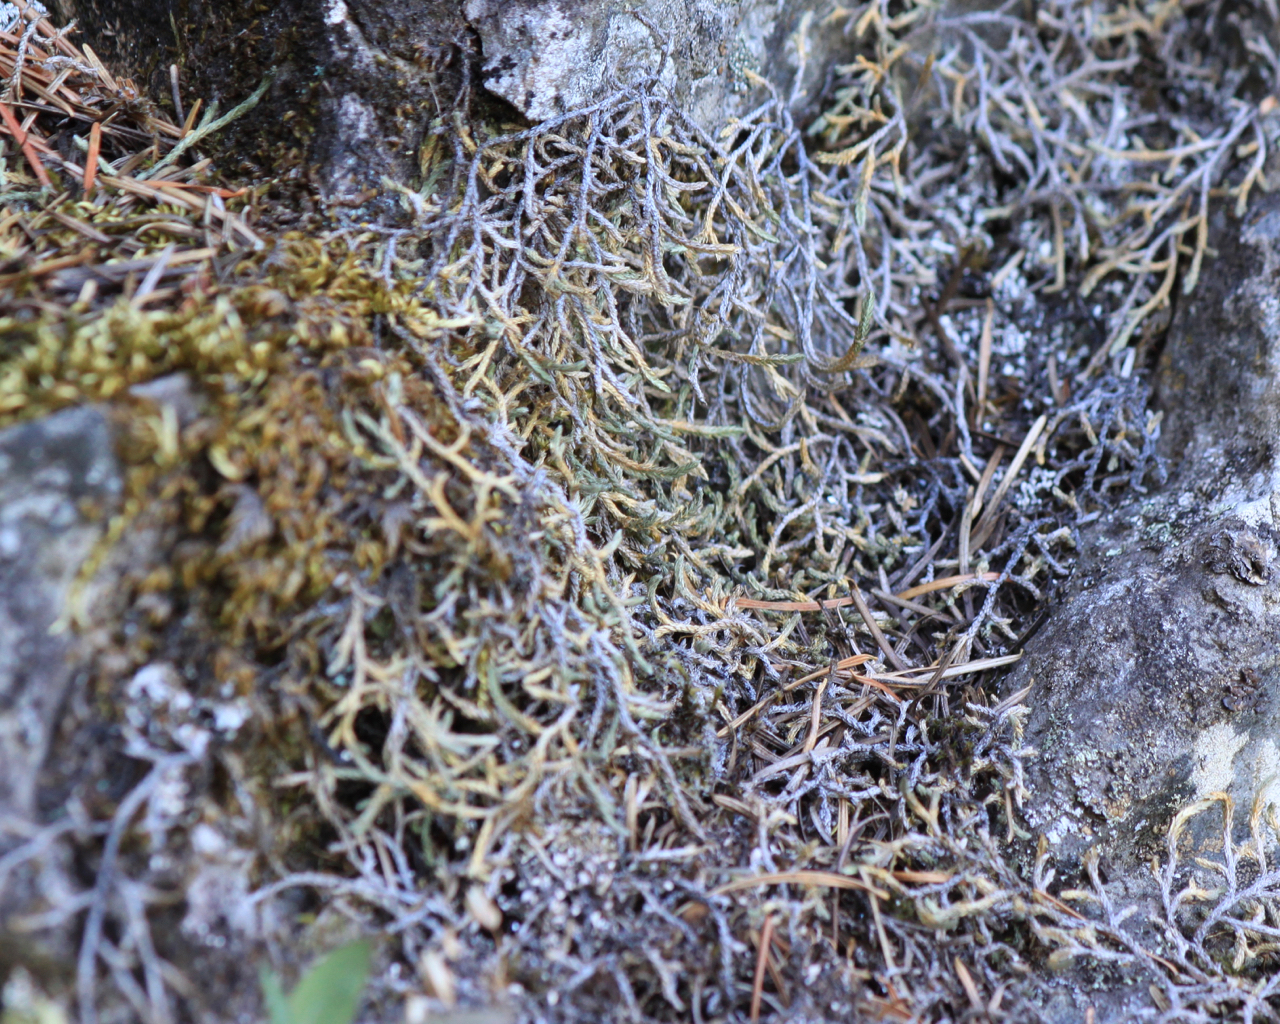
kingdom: Plantae
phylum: Tracheophyta
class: Lycopodiopsida
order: Selaginellales
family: Selaginellaceae
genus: Selaginella
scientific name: Selaginella wallacei
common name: Wallace's selaginella
